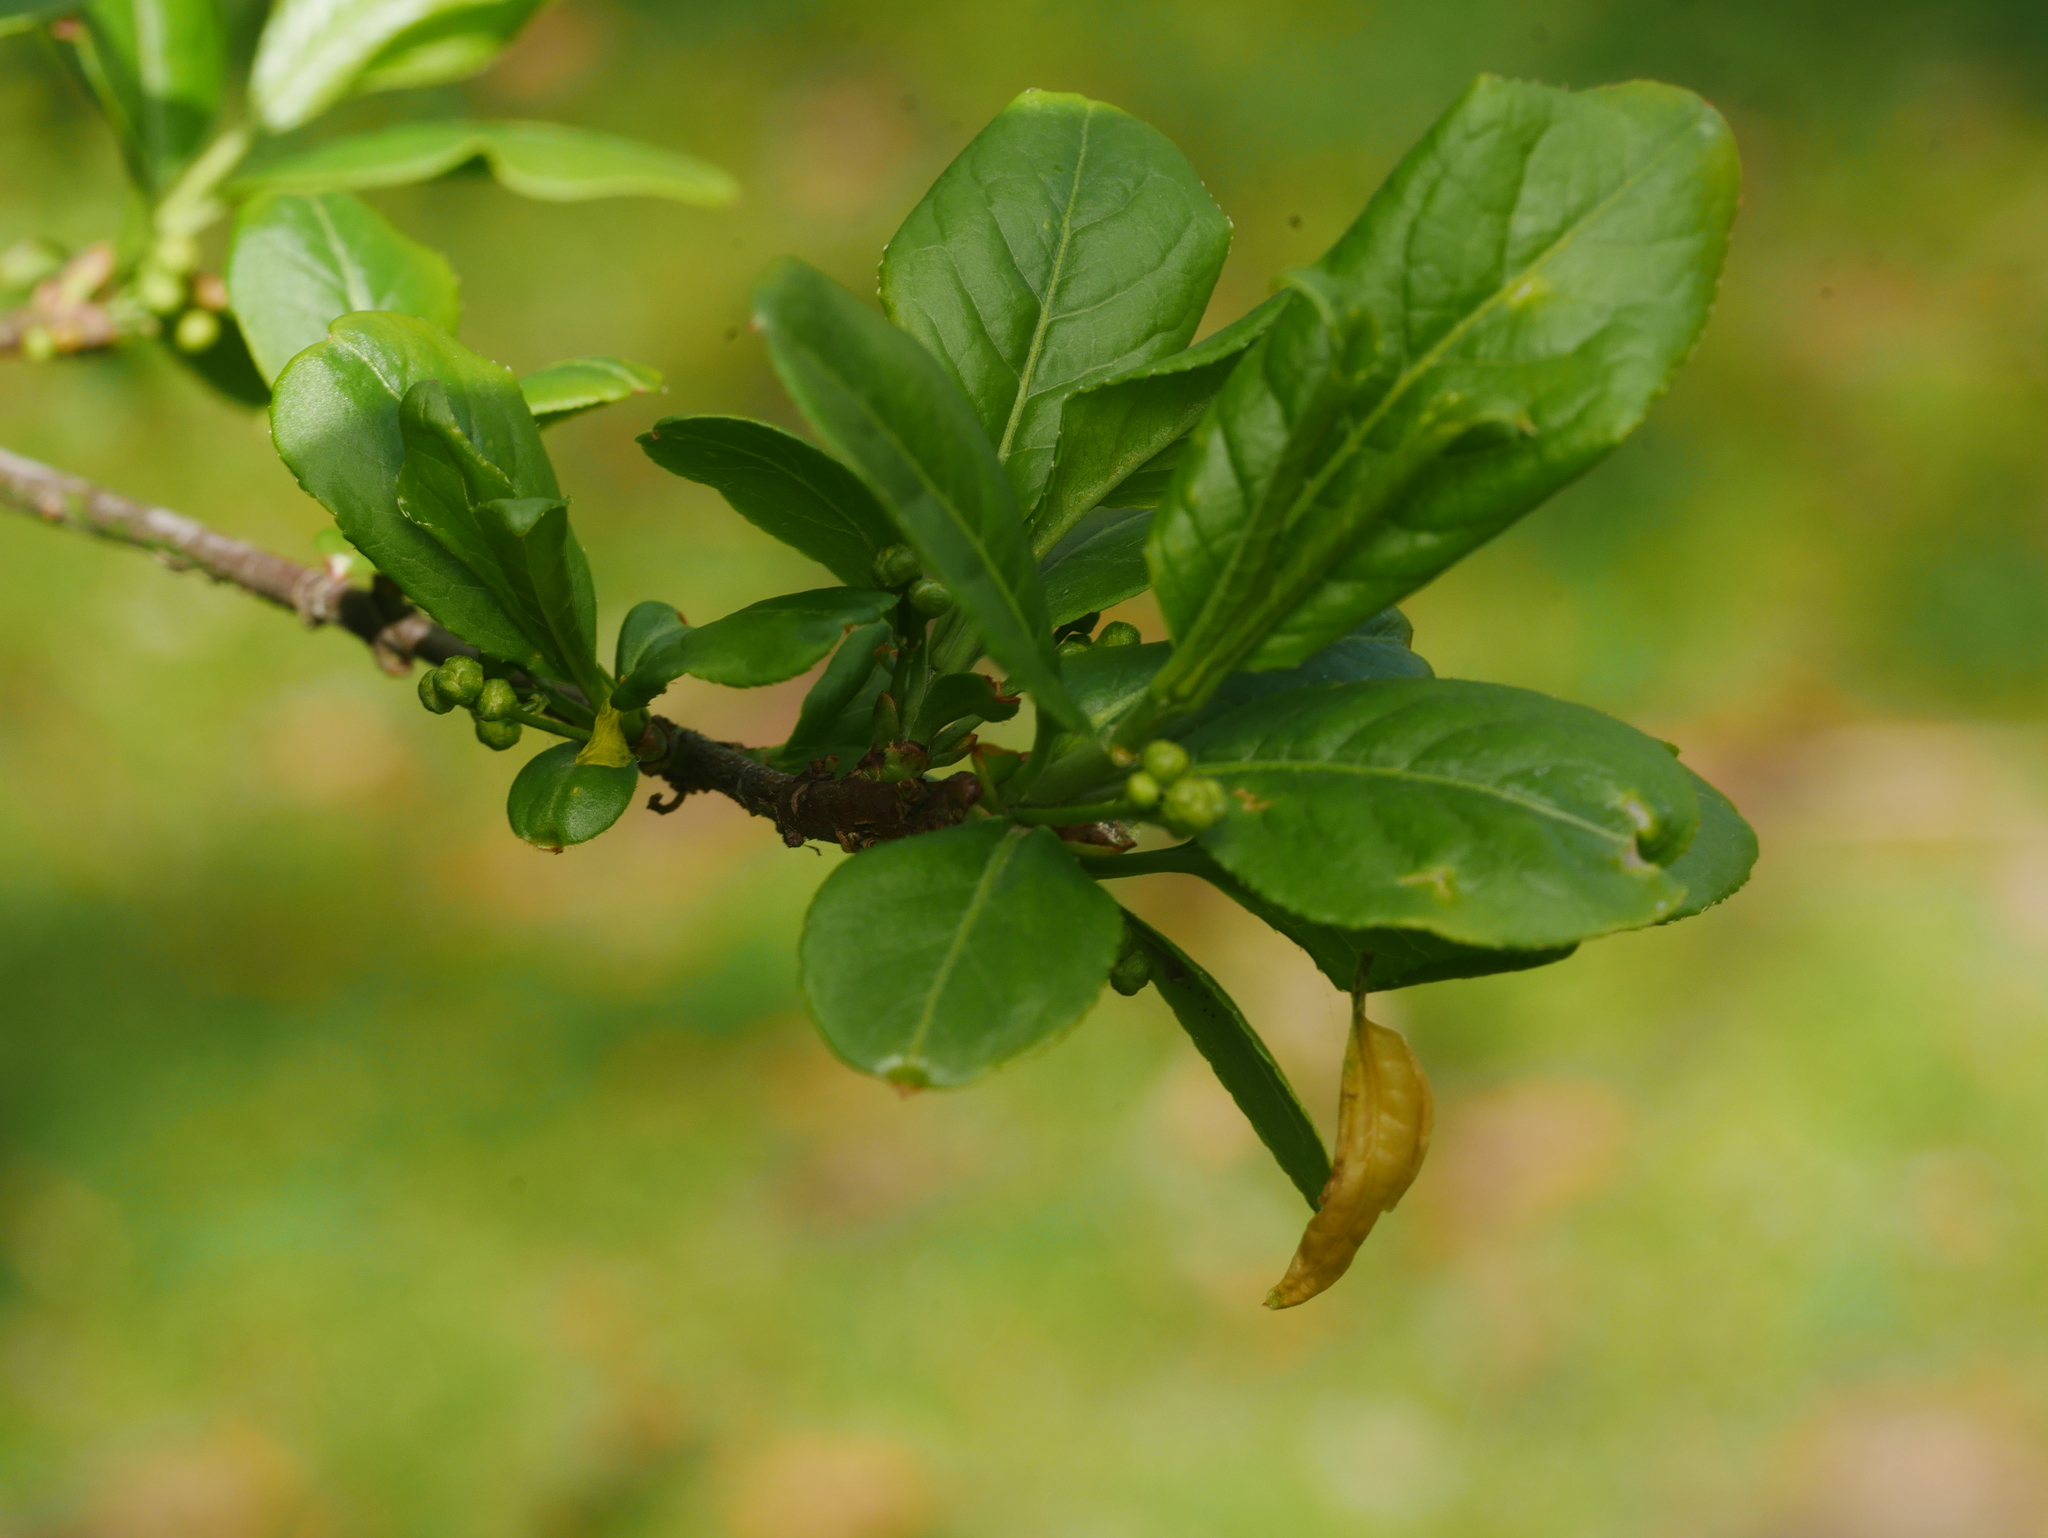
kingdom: Plantae
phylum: Tracheophyta
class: Magnoliopsida
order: Celastrales
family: Celastraceae
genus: Euonymus
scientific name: Euonymus europaeus
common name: Spindle
